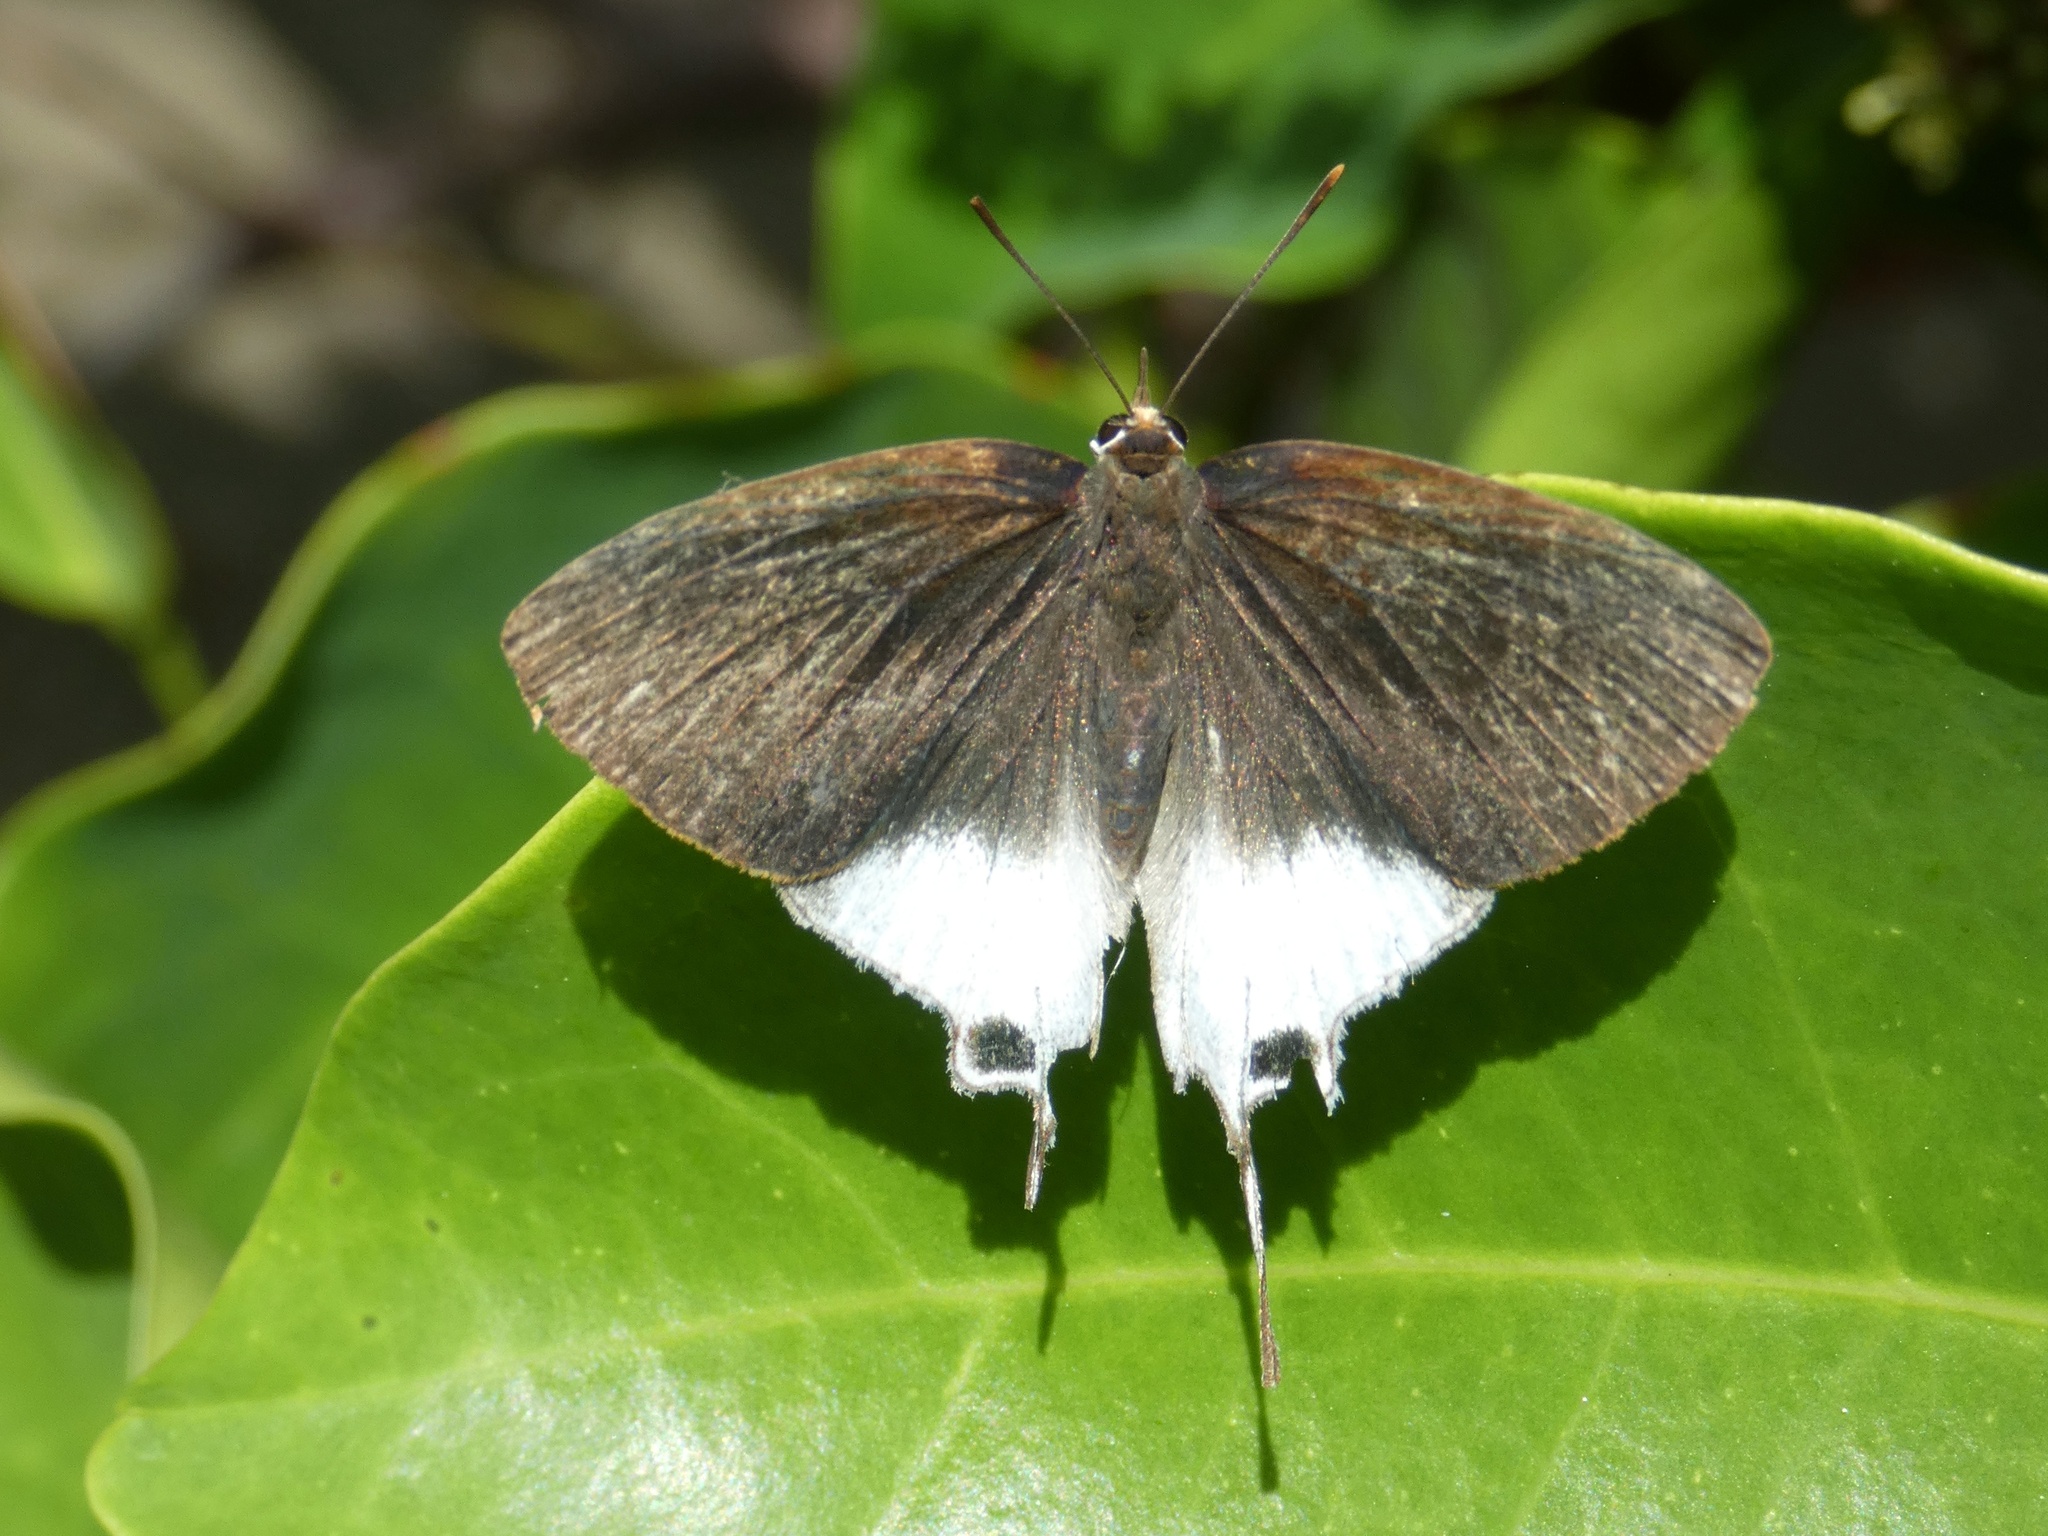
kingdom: Animalia
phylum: Arthropoda
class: Insecta
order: Lepidoptera
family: Lycaenidae
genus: Bindahara
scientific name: Bindahara phocides
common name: Sword-tailed flash
